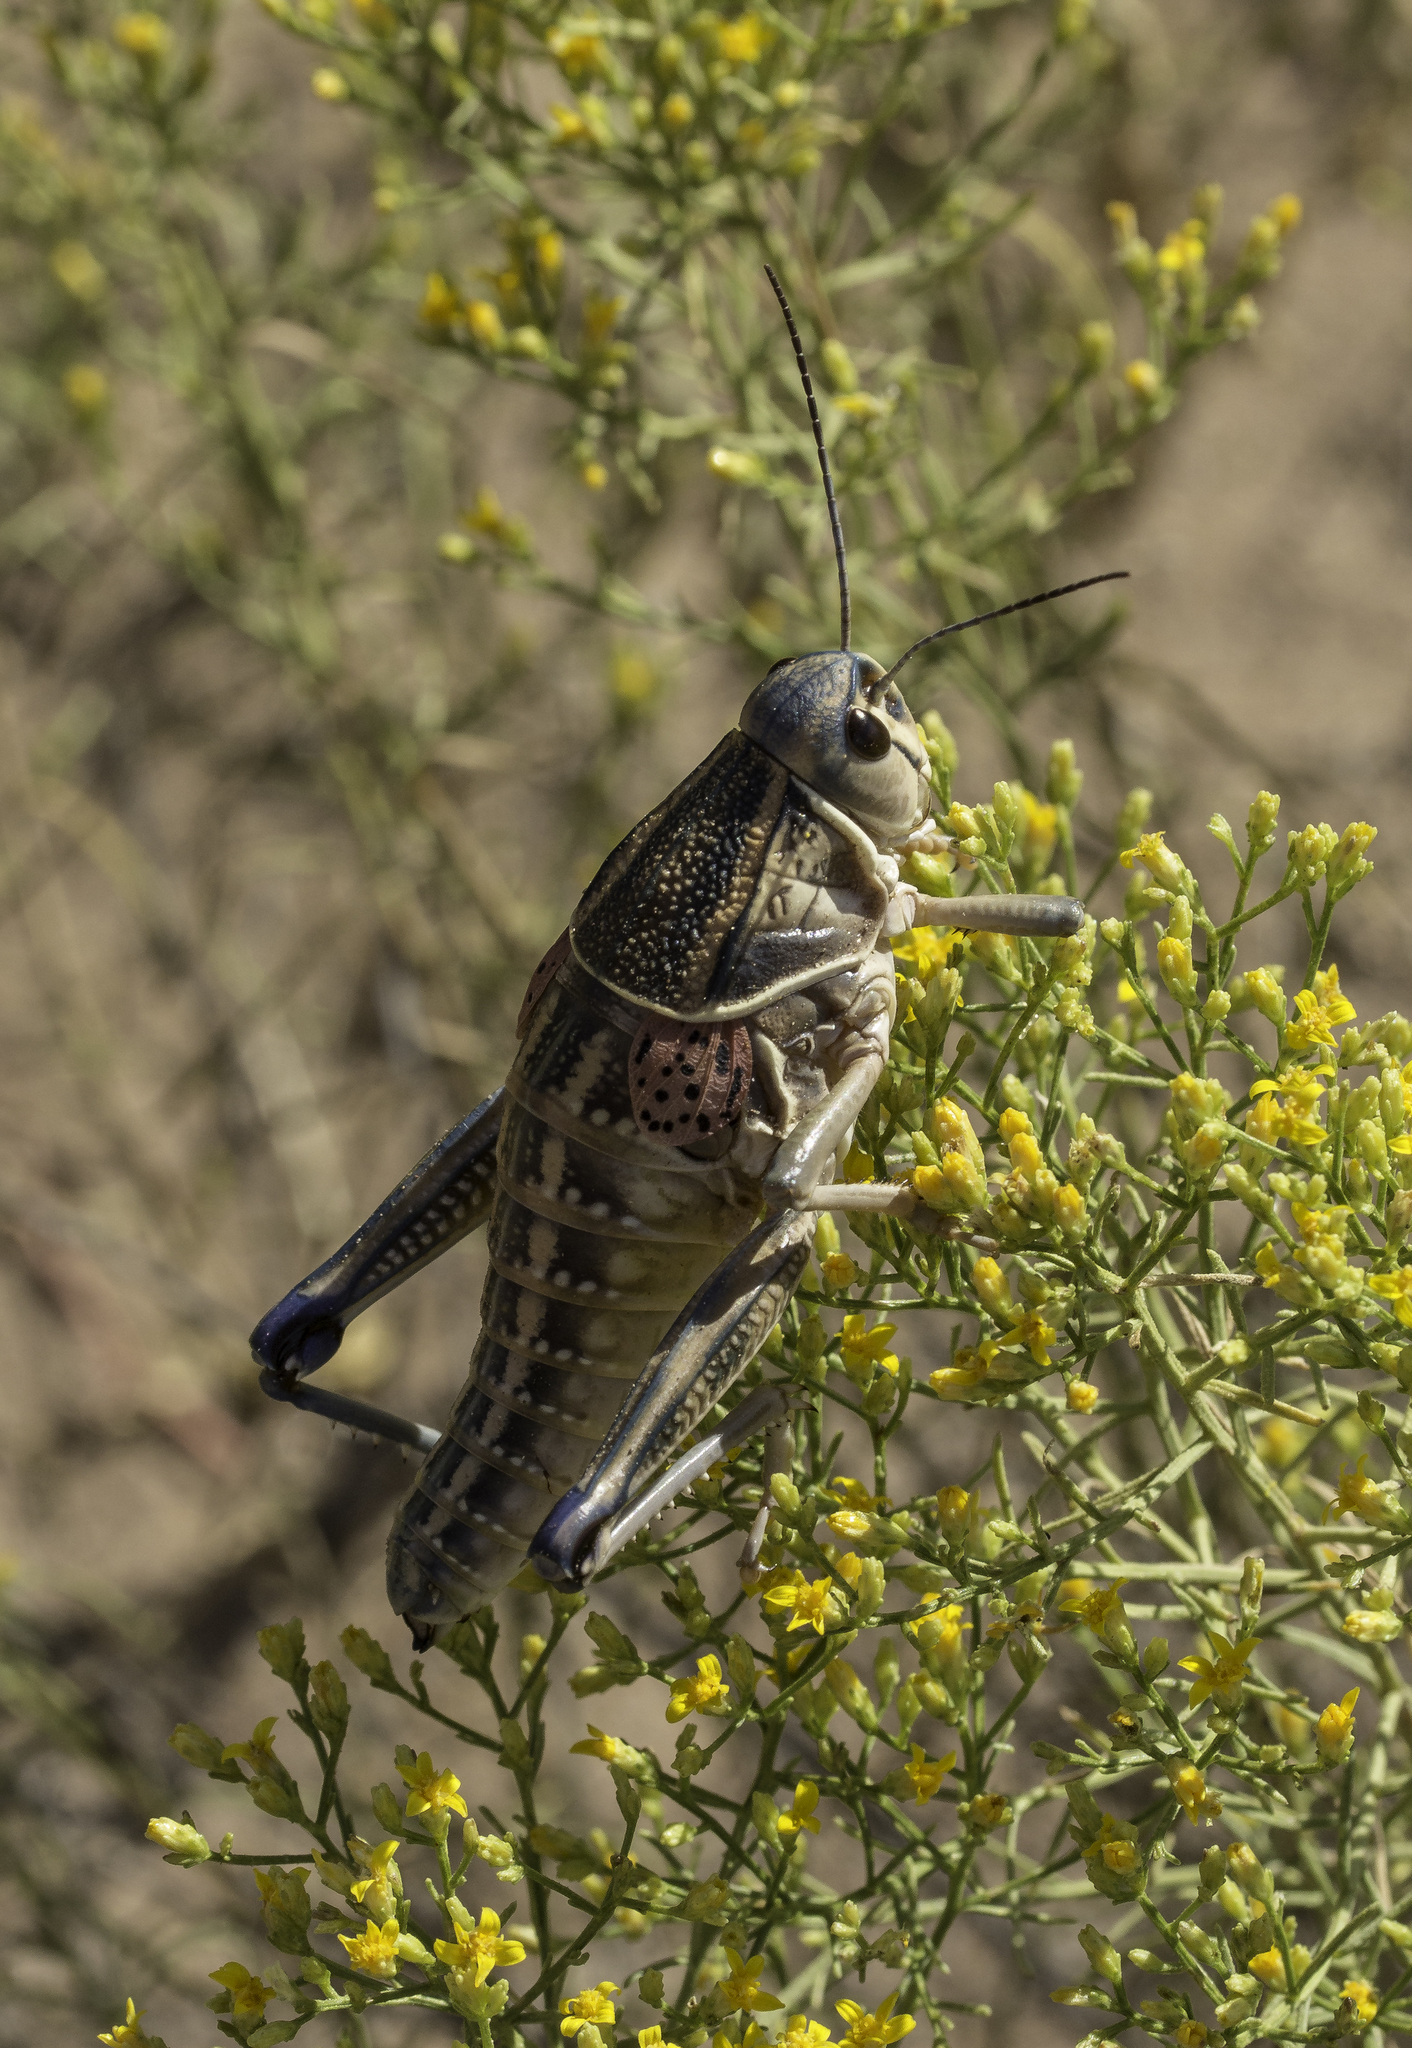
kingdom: Animalia
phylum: Arthropoda
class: Insecta
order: Orthoptera
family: Romaleidae
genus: Brachystola
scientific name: Brachystola magna
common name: Plains lubber grasshopper
